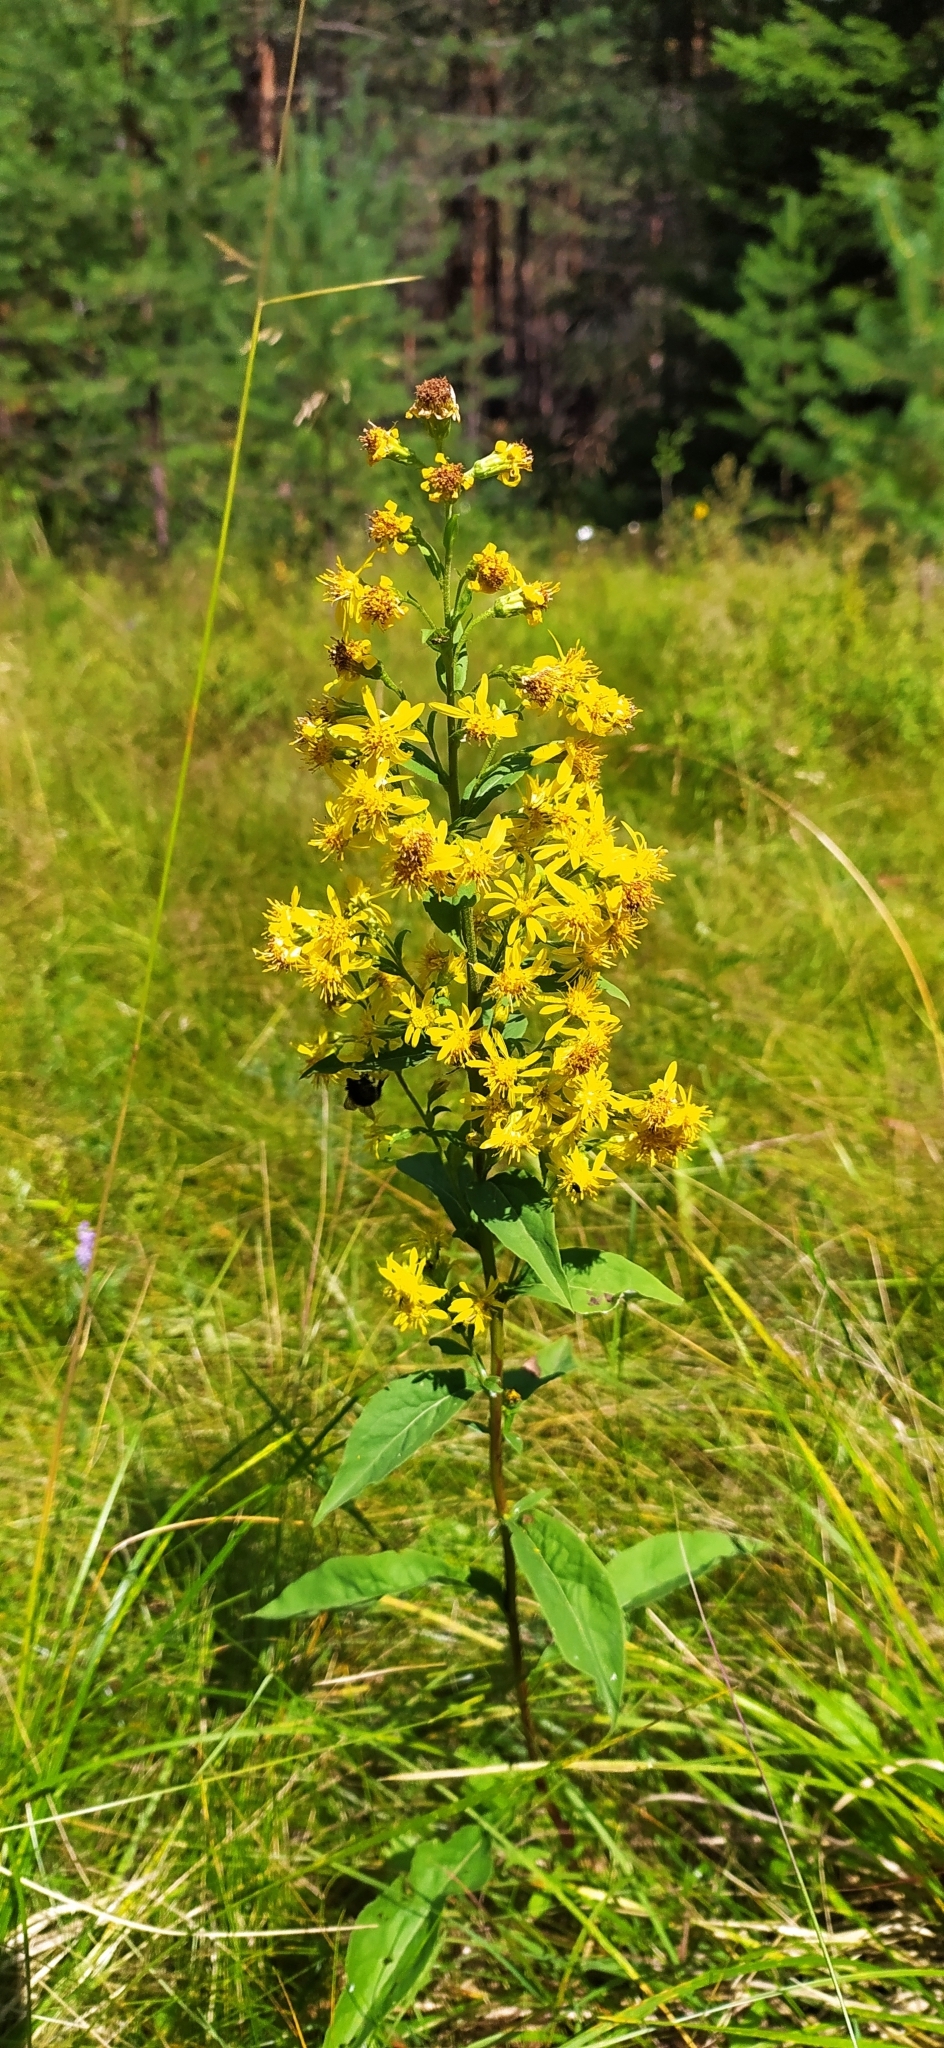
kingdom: Plantae
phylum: Tracheophyta
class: Magnoliopsida
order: Asterales
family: Asteraceae
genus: Solidago
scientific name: Solidago virgaurea
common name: Goldenrod
